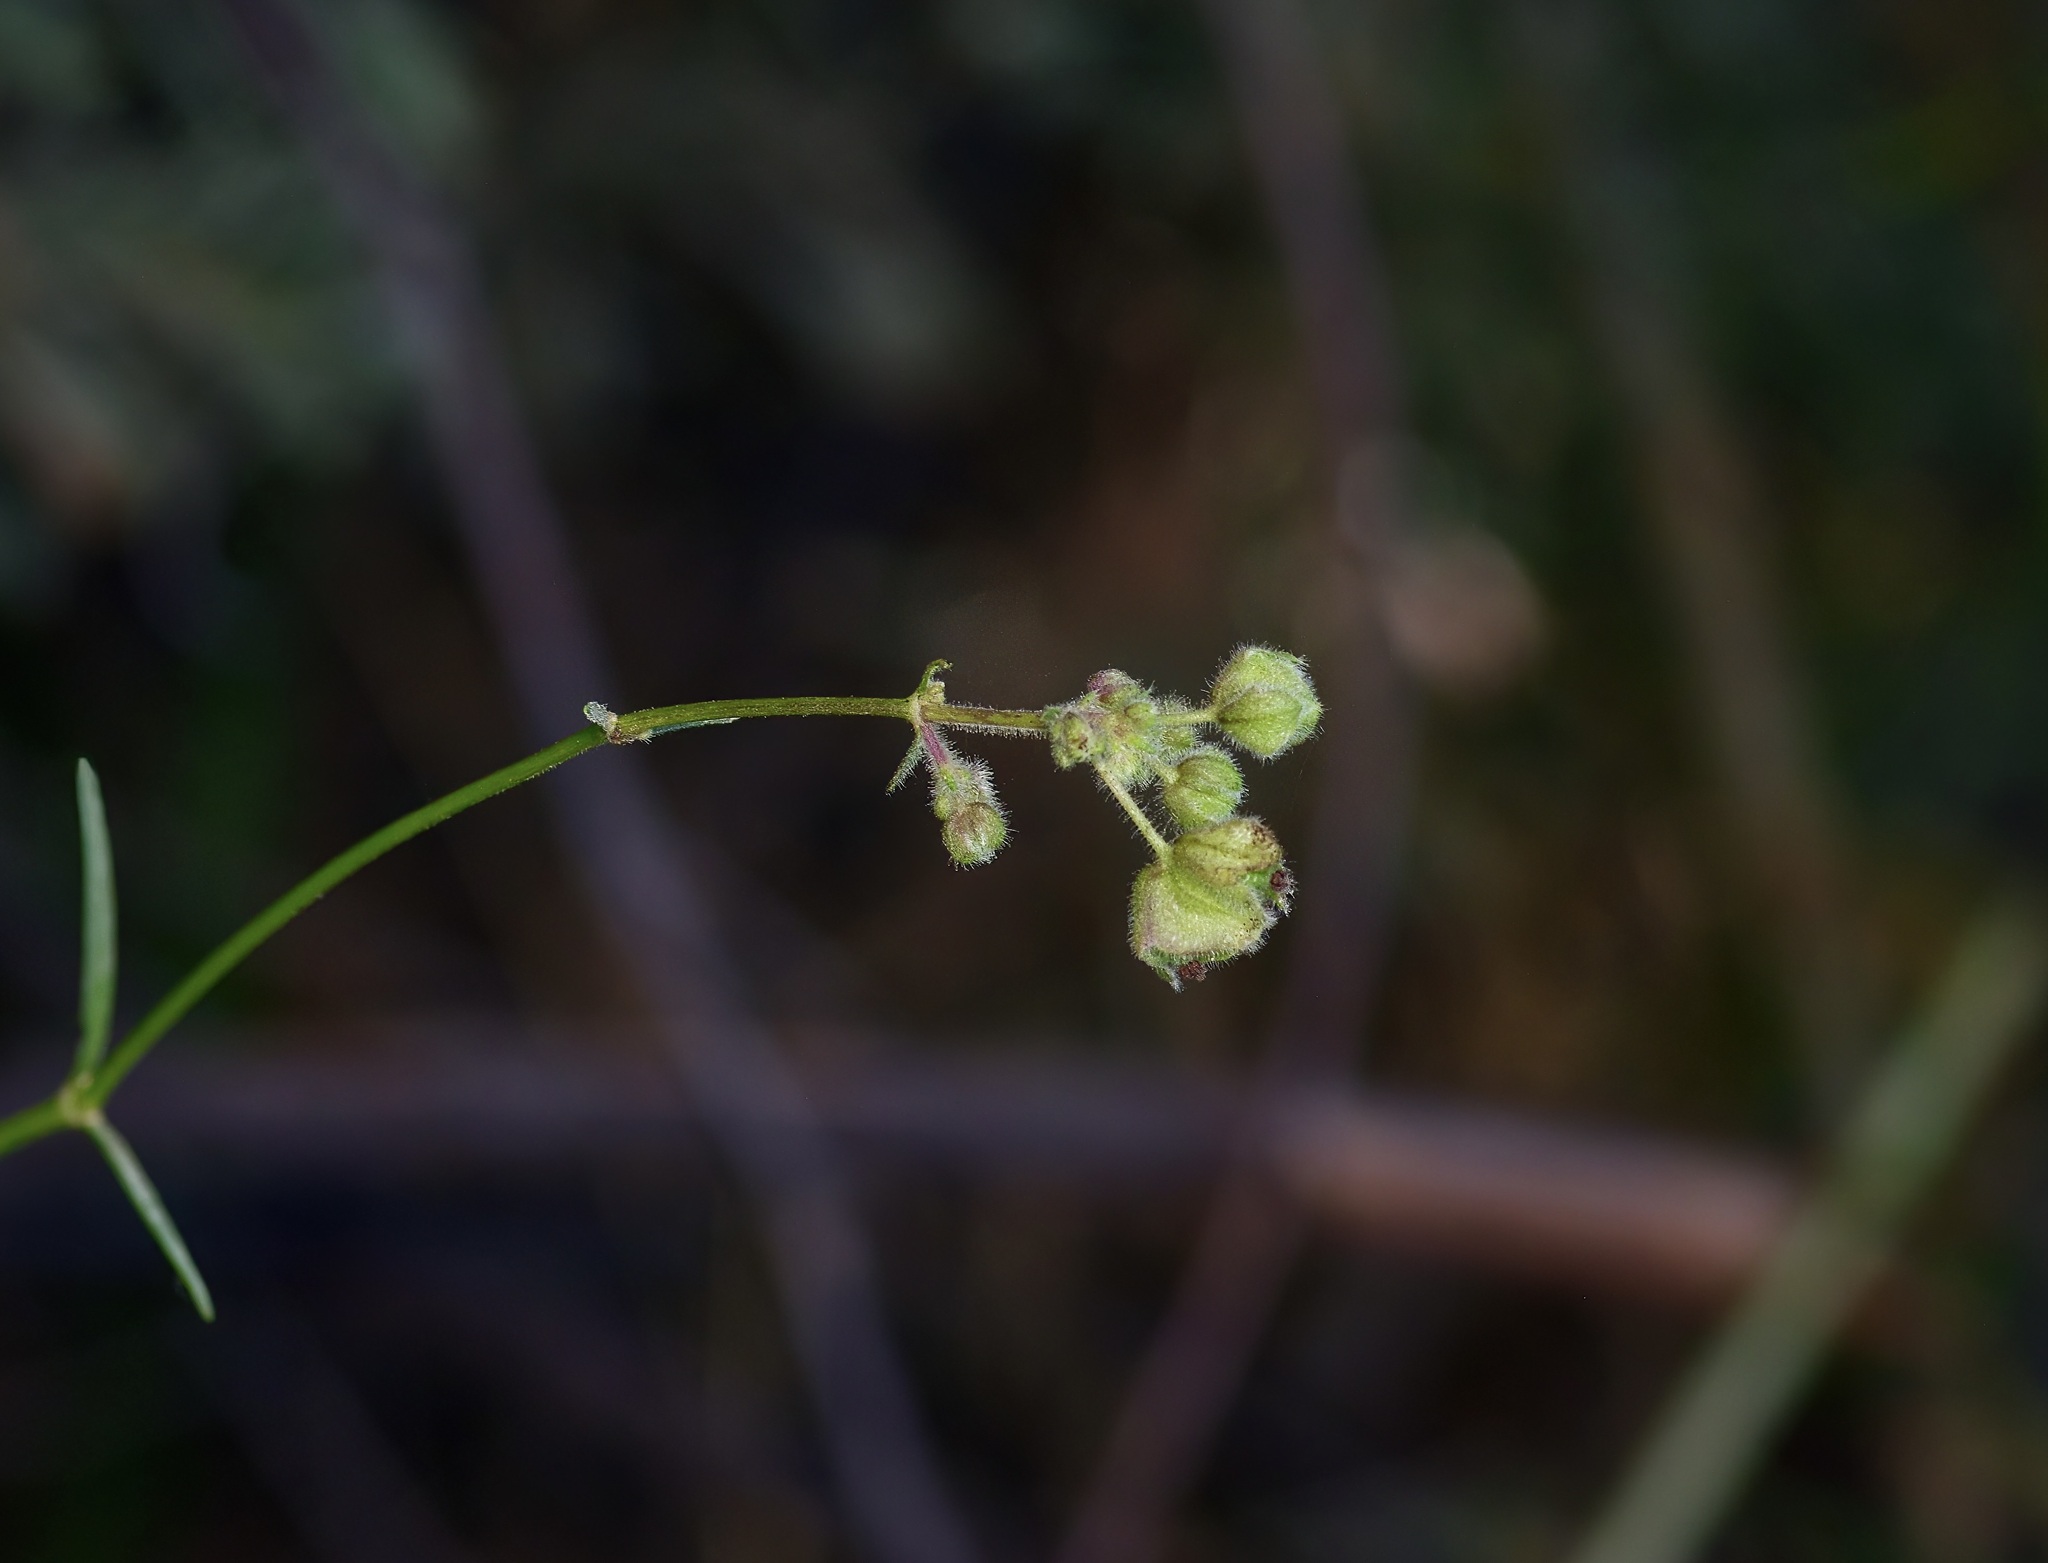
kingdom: Plantae
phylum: Tracheophyta
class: Magnoliopsida
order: Caryophyllales
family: Nyctaginaceae
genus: Mirabilis
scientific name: Mirabilis linearis
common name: Linear-leaved four-o'clock
